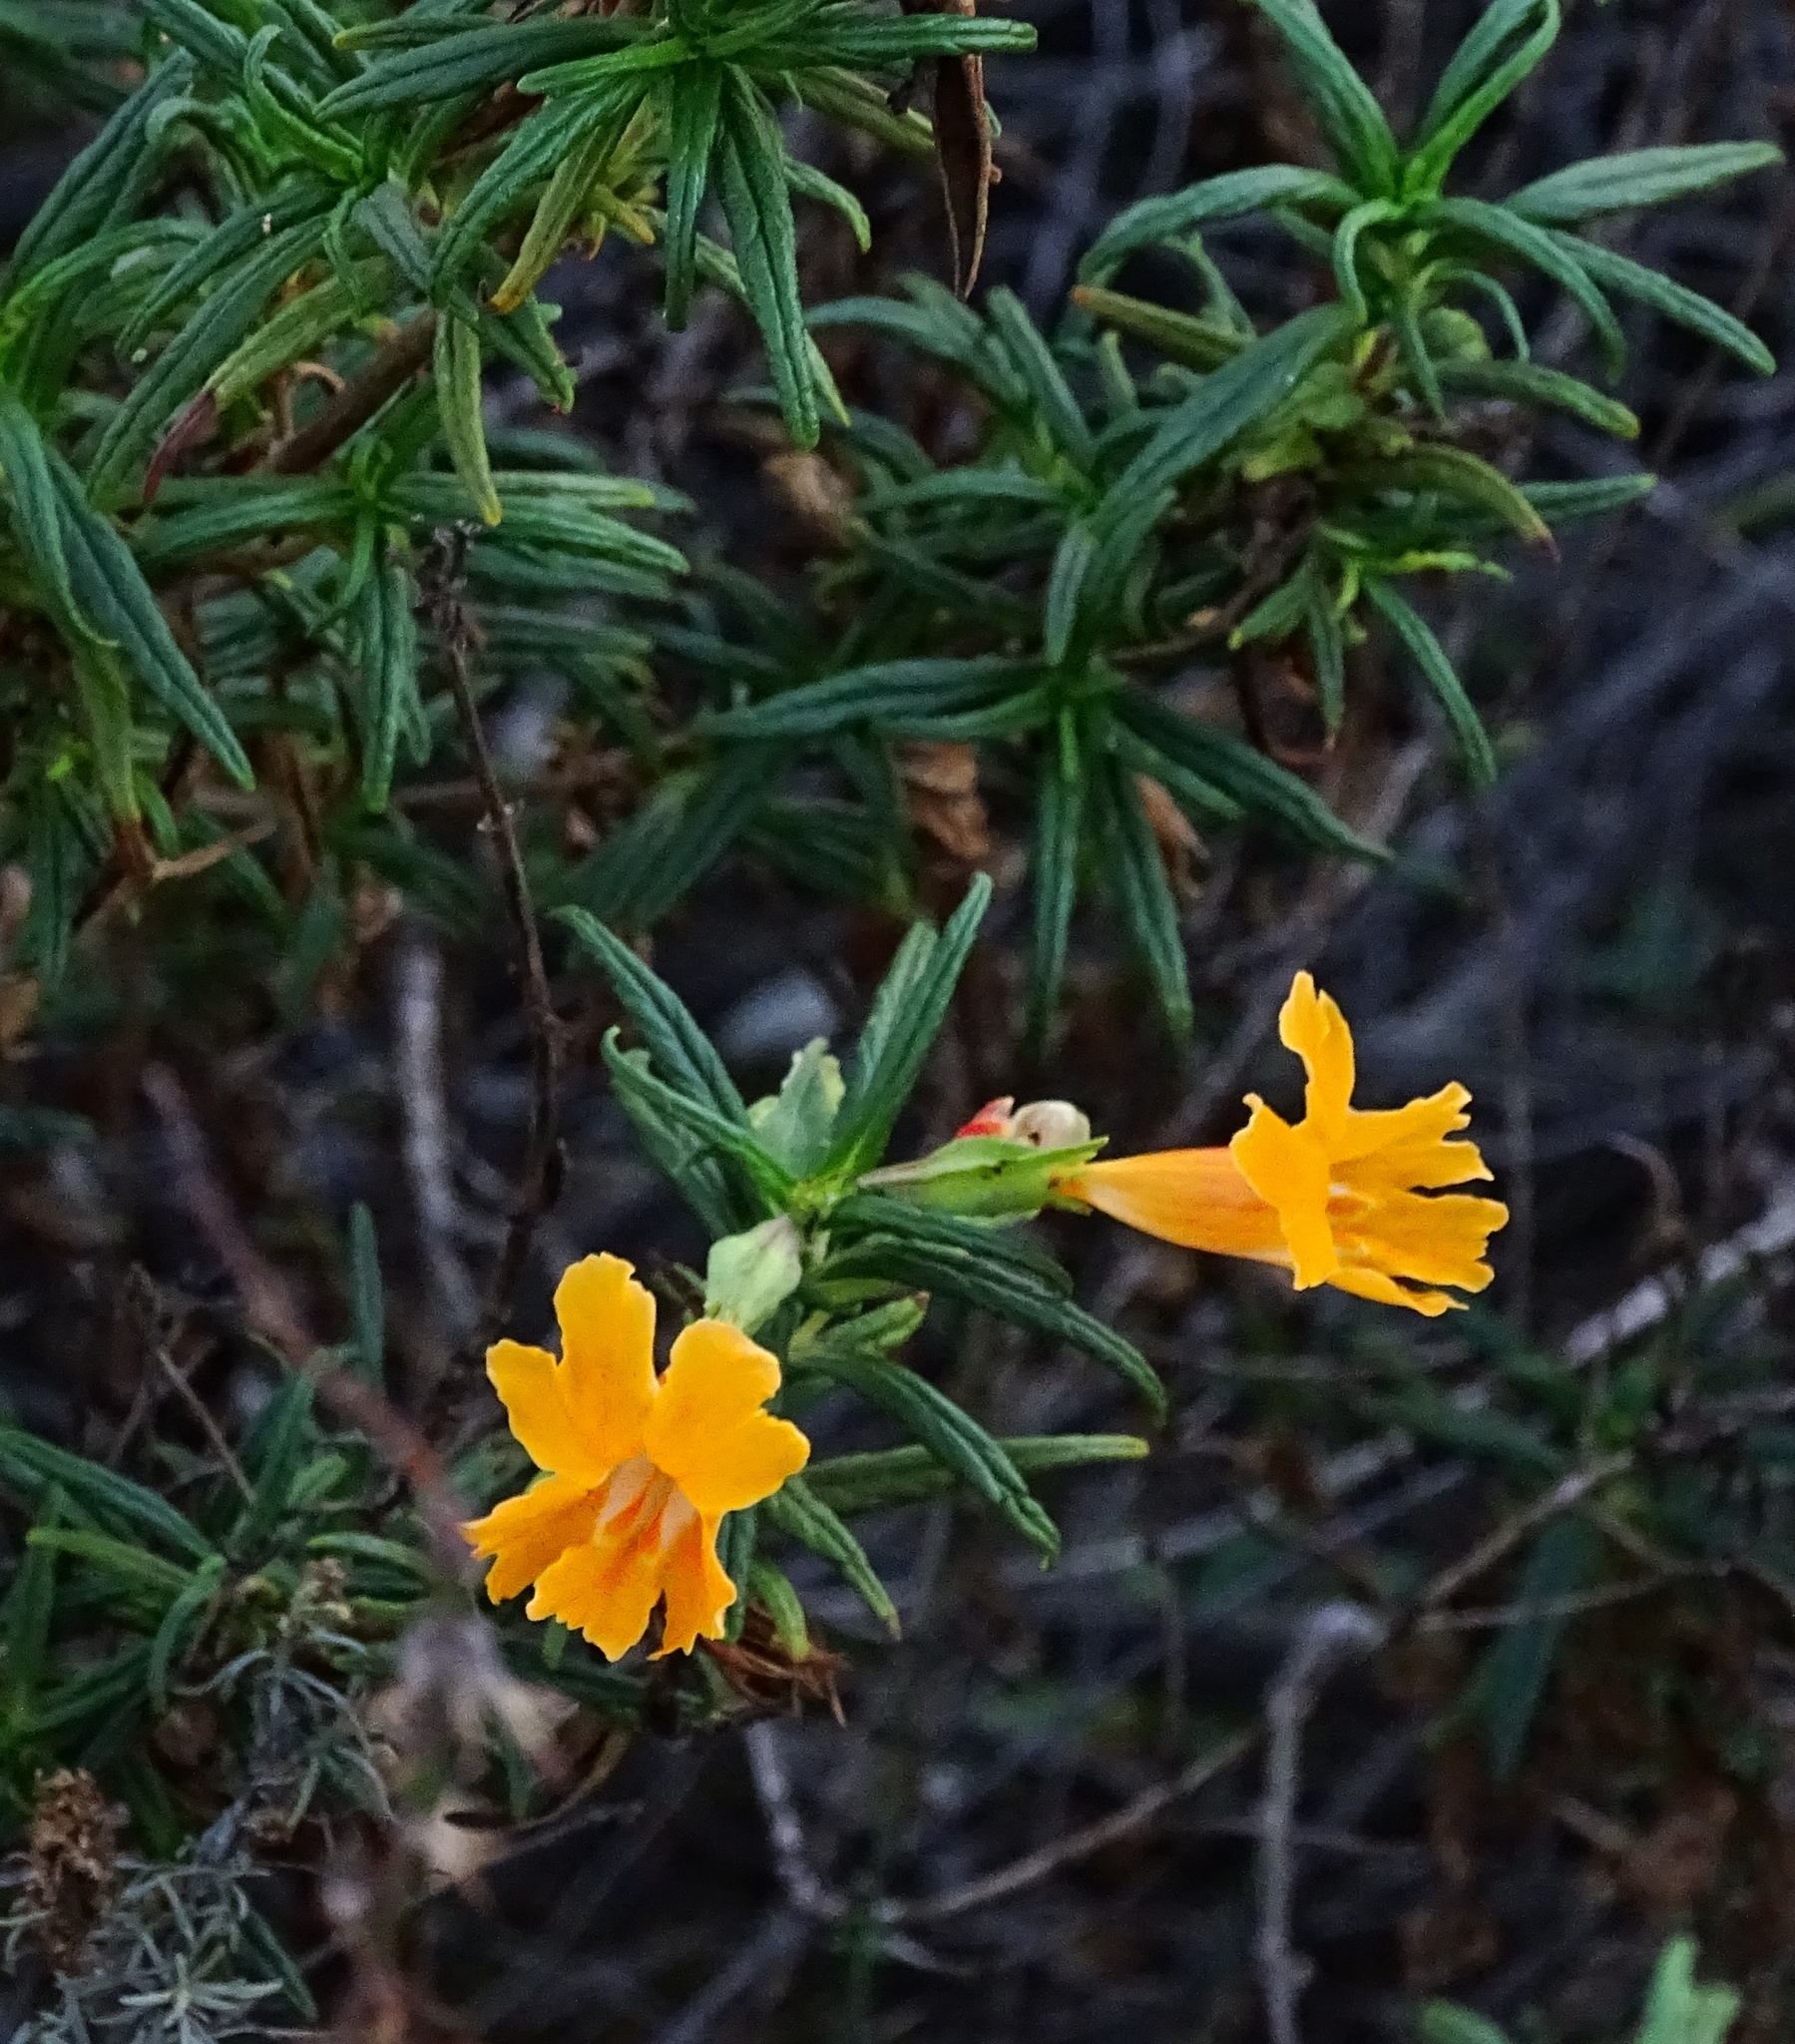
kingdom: Plantae
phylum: Tracheophyta
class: Magnoliopsida
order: Lamiales
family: Phrymaceae
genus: Diplacus
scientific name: Diplacus longiflorus
